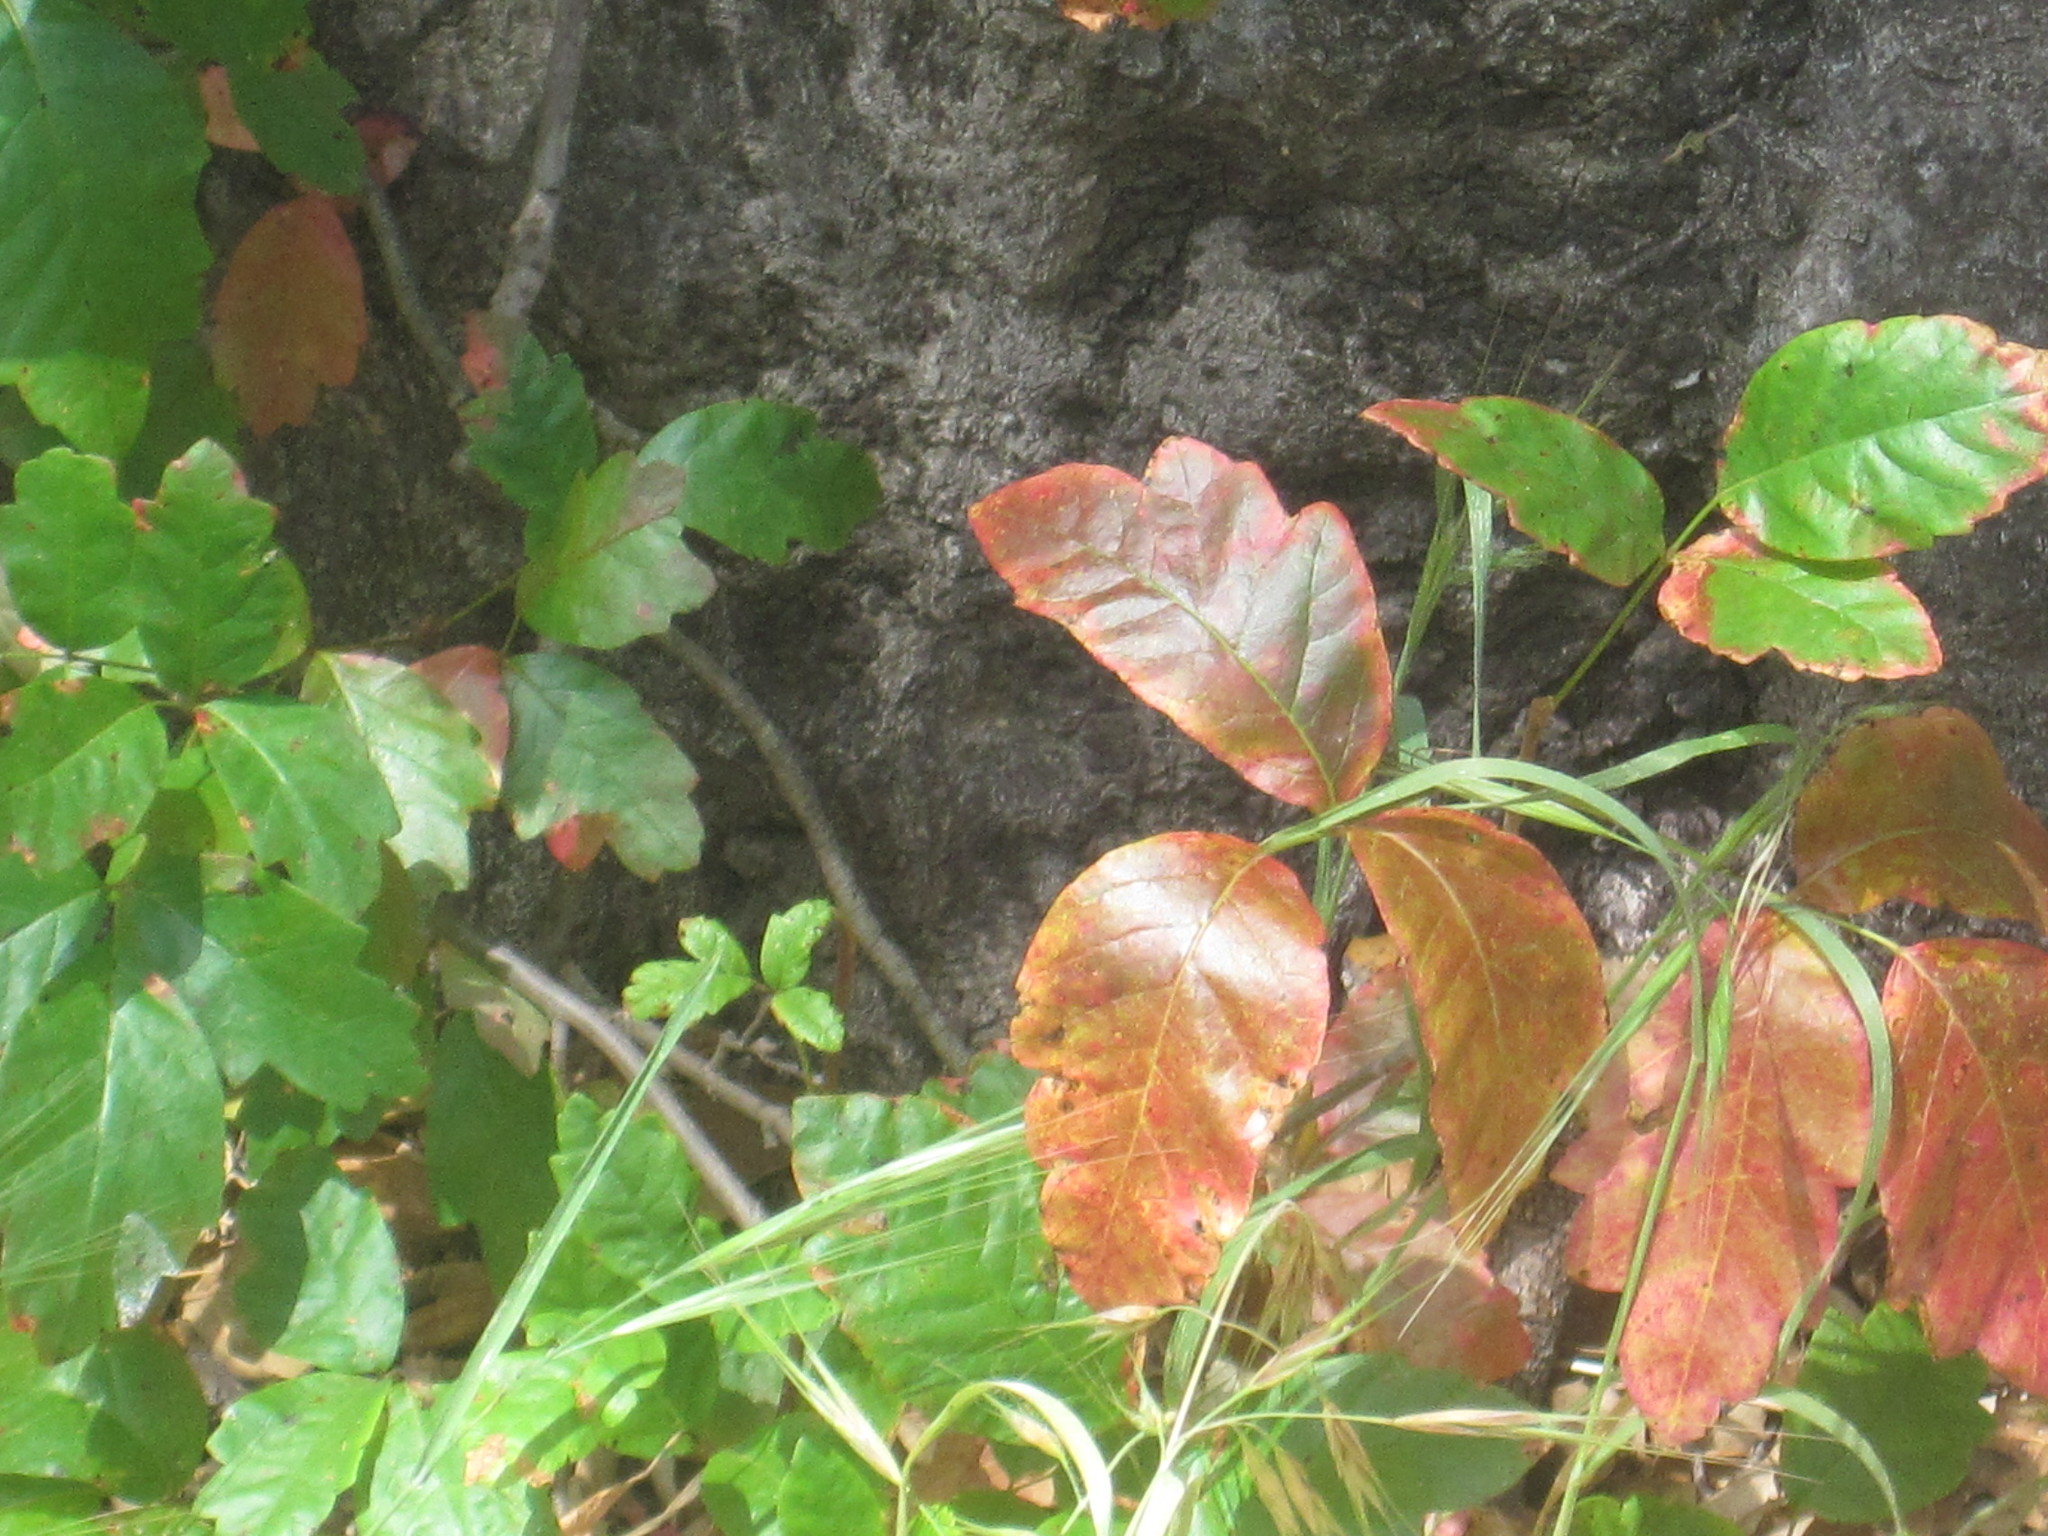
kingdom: Plantae
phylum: Tracheophyta
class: Magnoliopsida
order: Sapindales
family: Anacardiaceae
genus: Toxicodendron
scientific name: Toxicodendron diversilobum
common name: Pacific poison-oak
